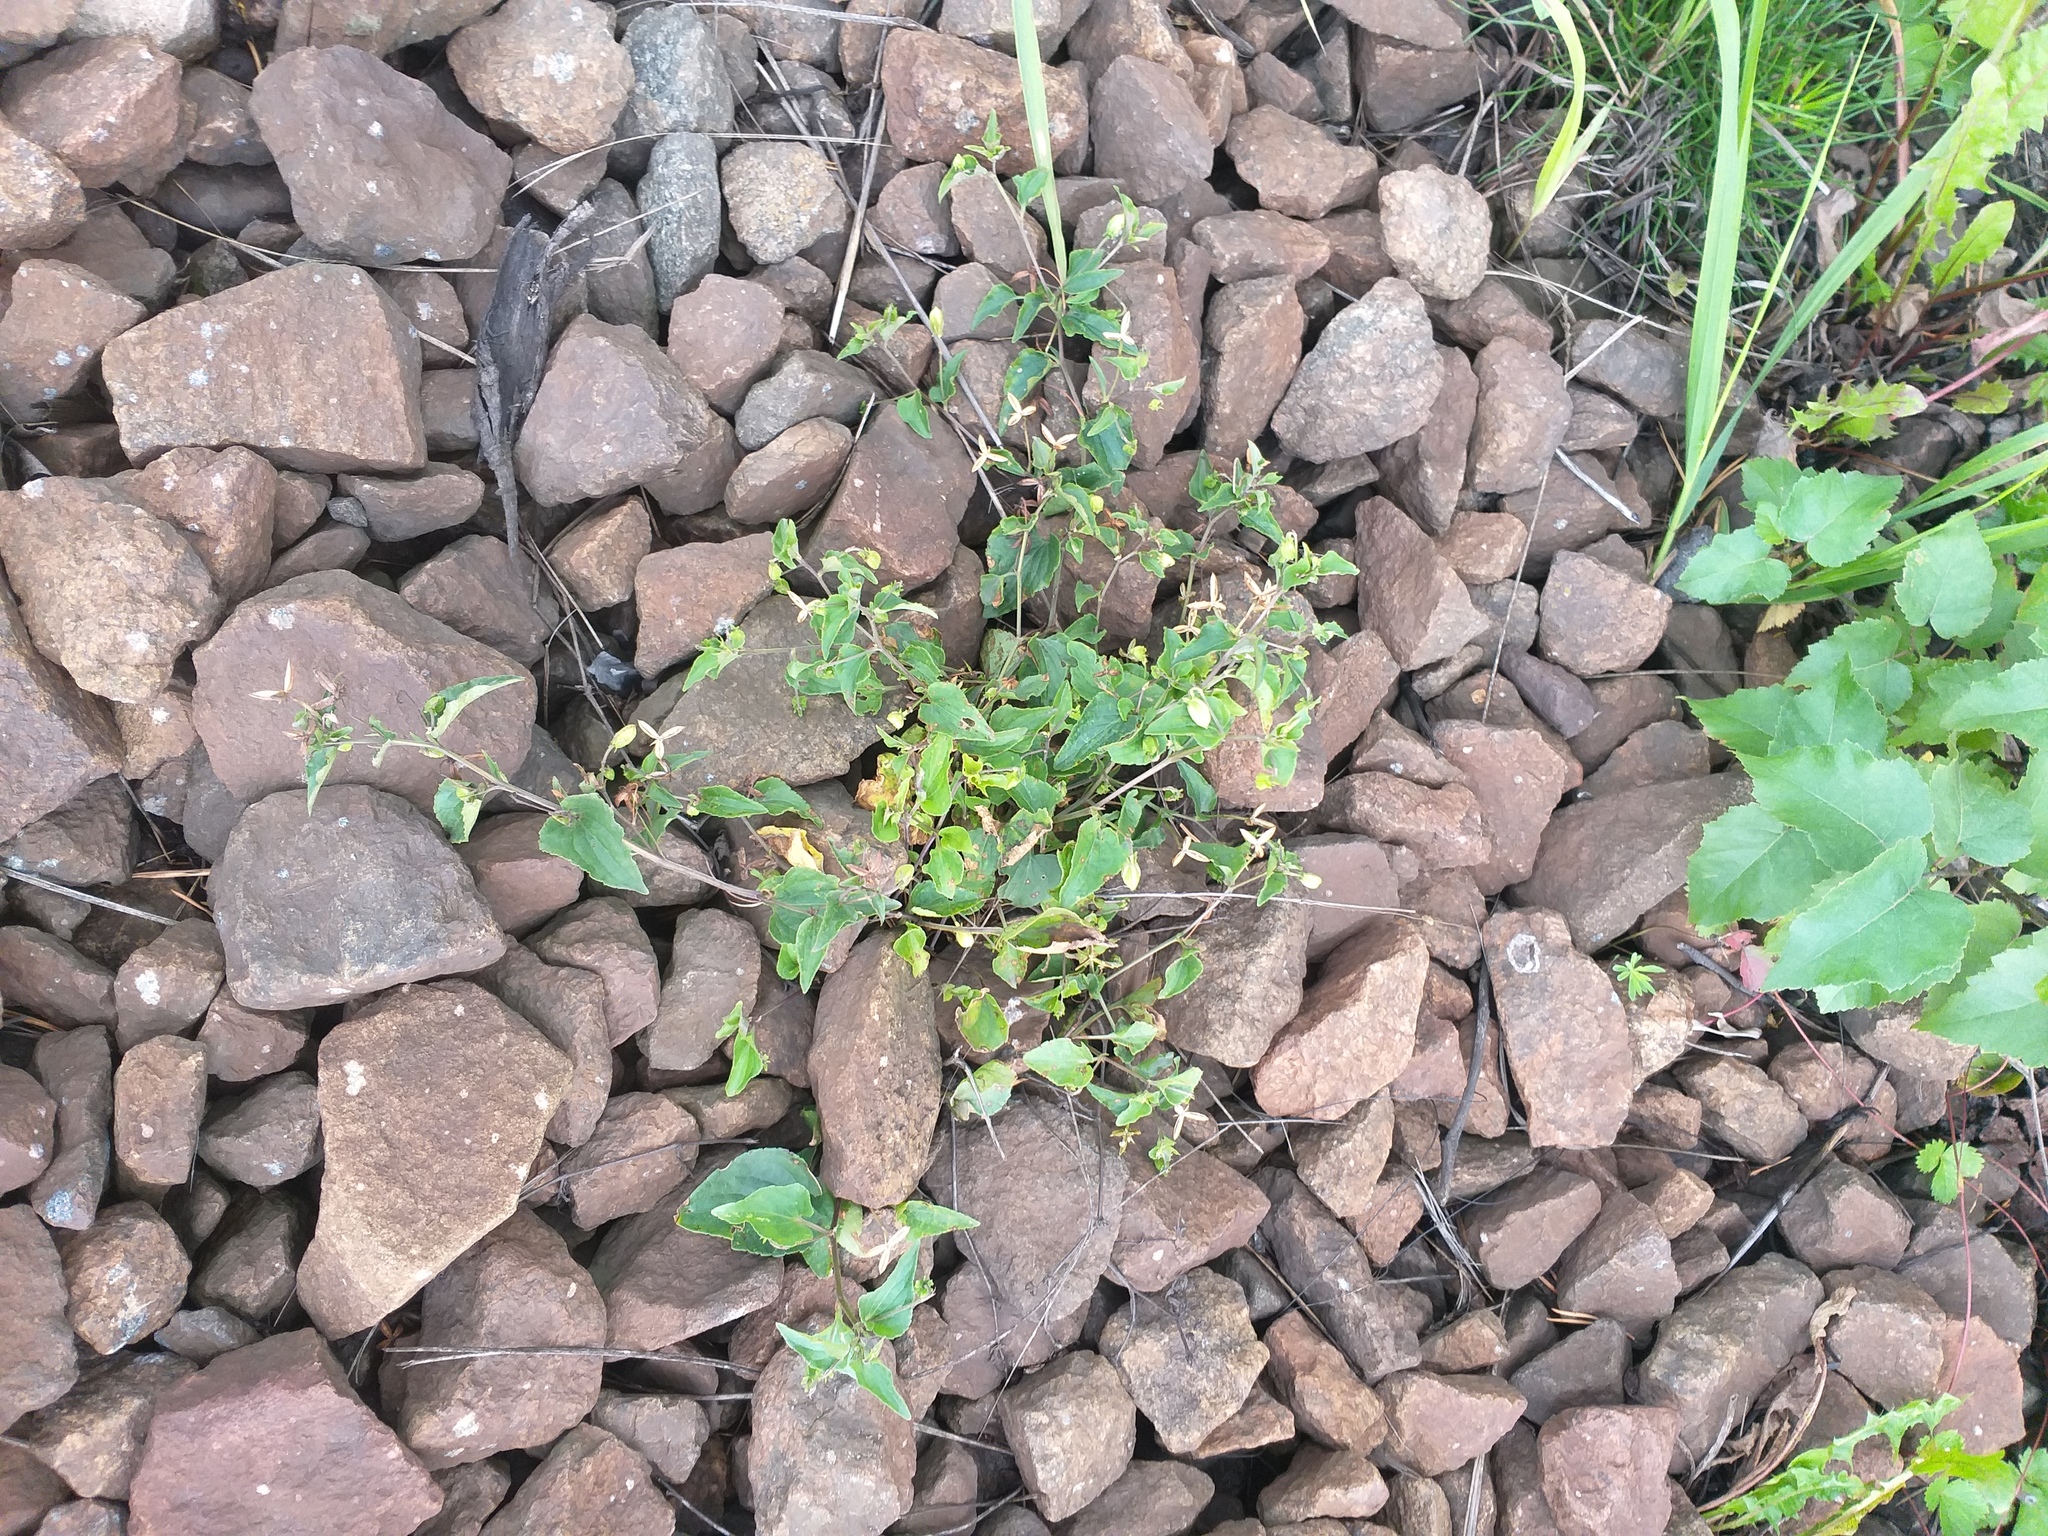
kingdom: Plantae
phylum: Tracheophyta
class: Magnoliopsida
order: Malpighiales
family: Violaceae
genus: Viola
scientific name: Viola canina
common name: Heath dog-violet
